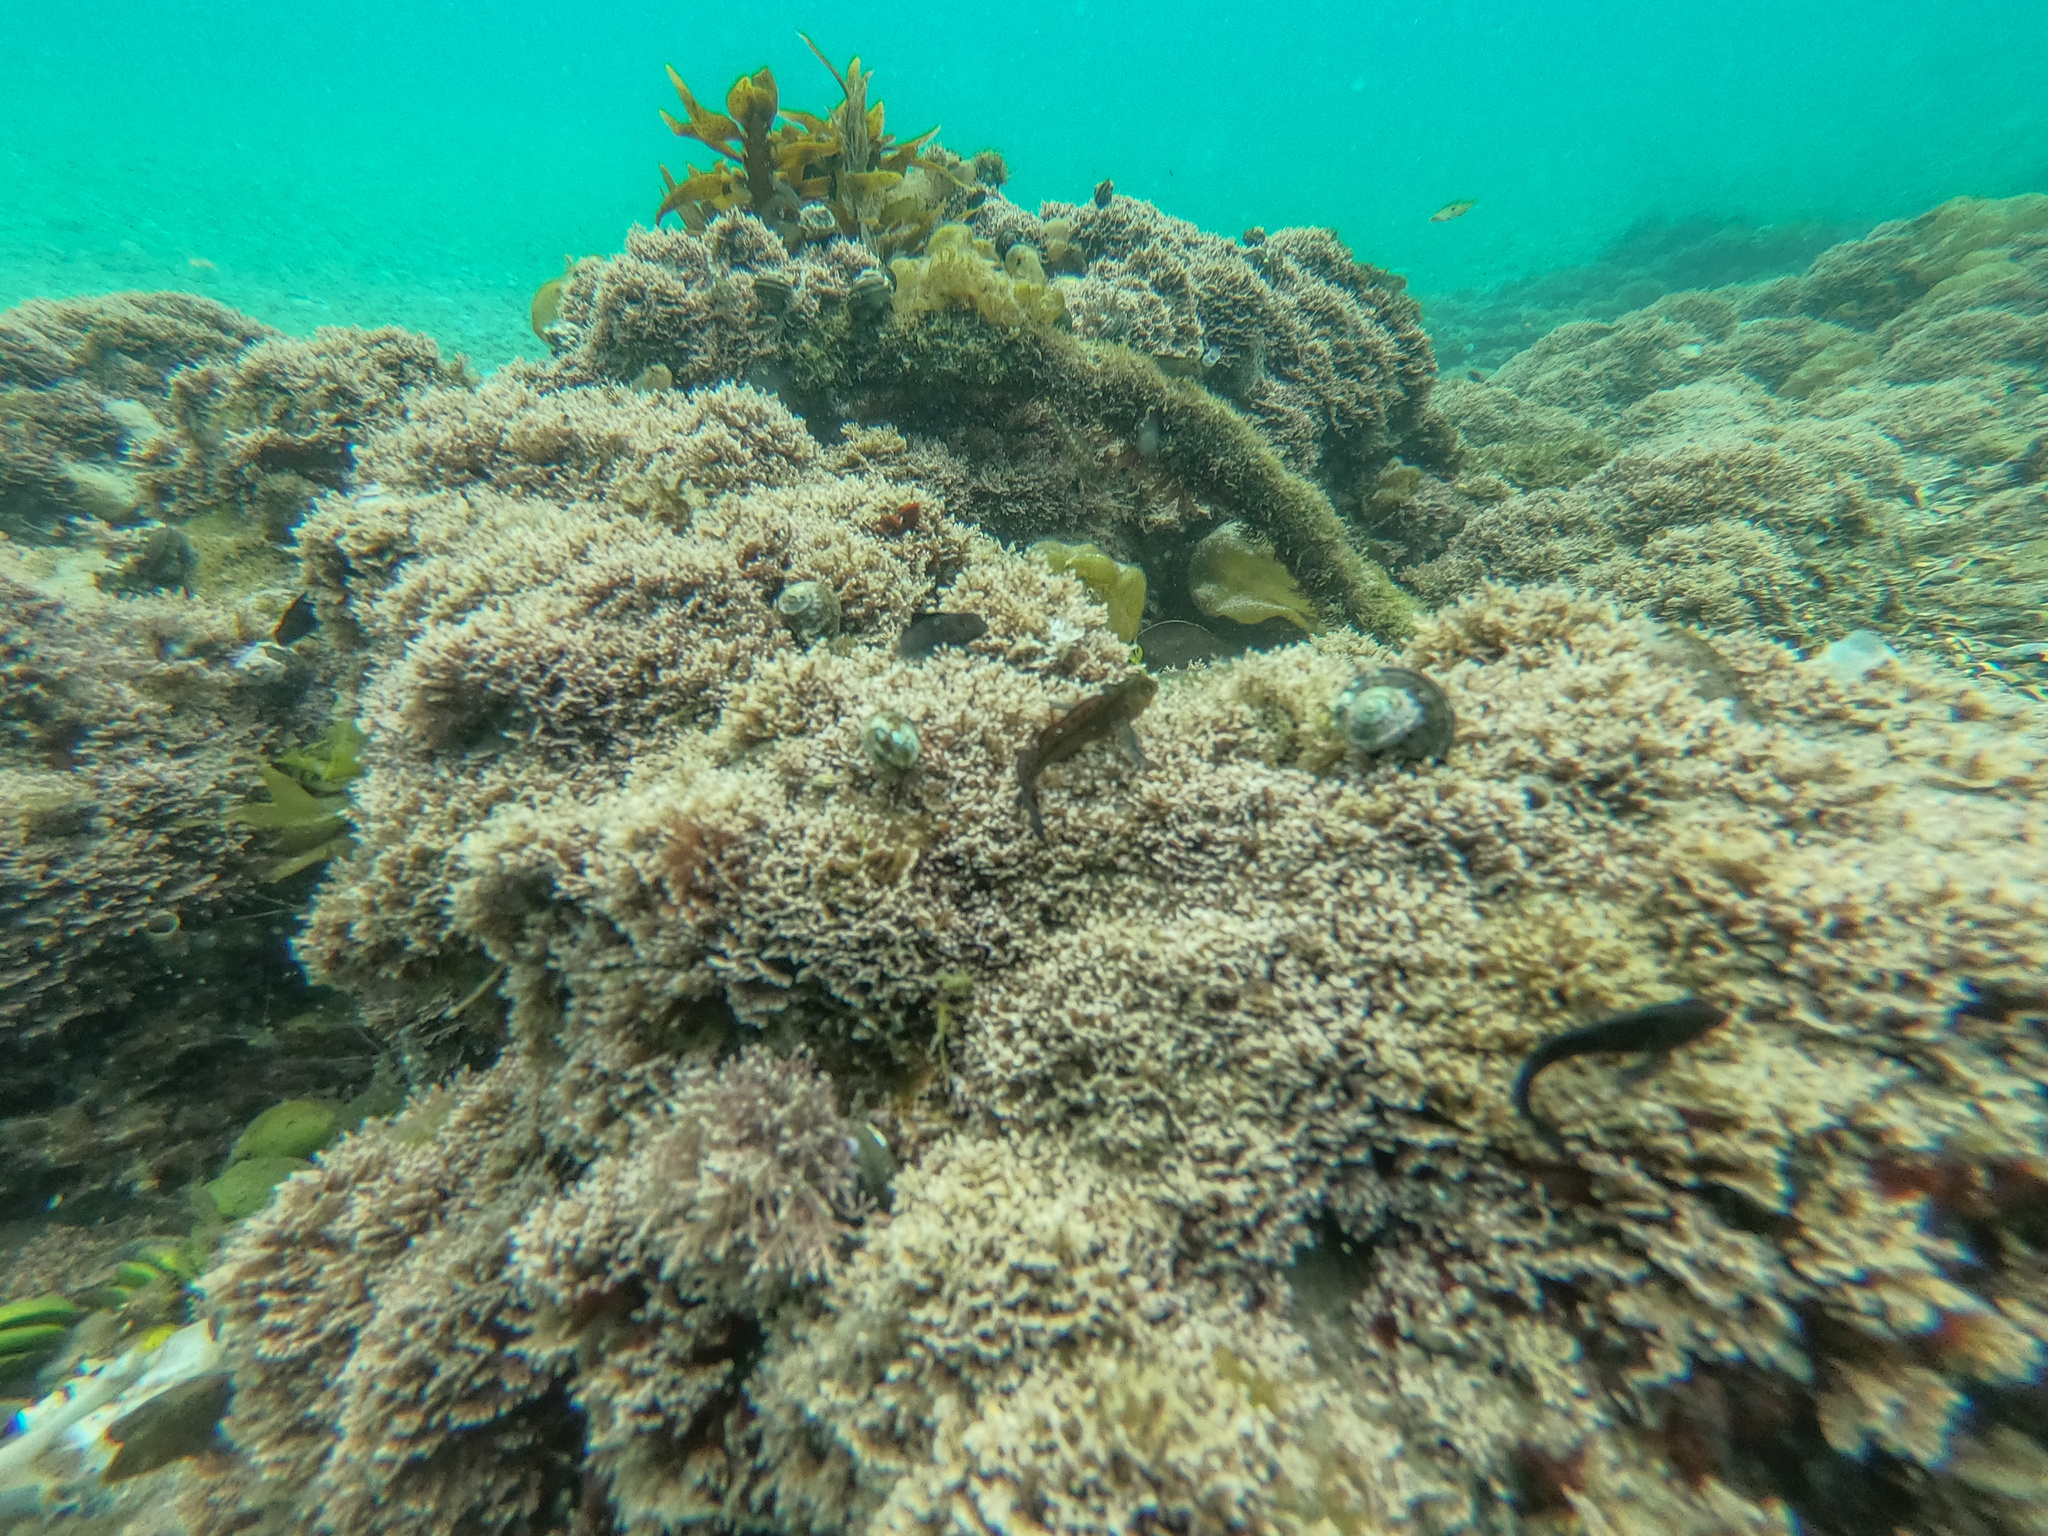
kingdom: Plantae
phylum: Rhodophyta
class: Florideophyceae
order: Corallinales
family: Corallinaceae
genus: Corallina
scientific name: Corallina officinalis
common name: Coral weed
